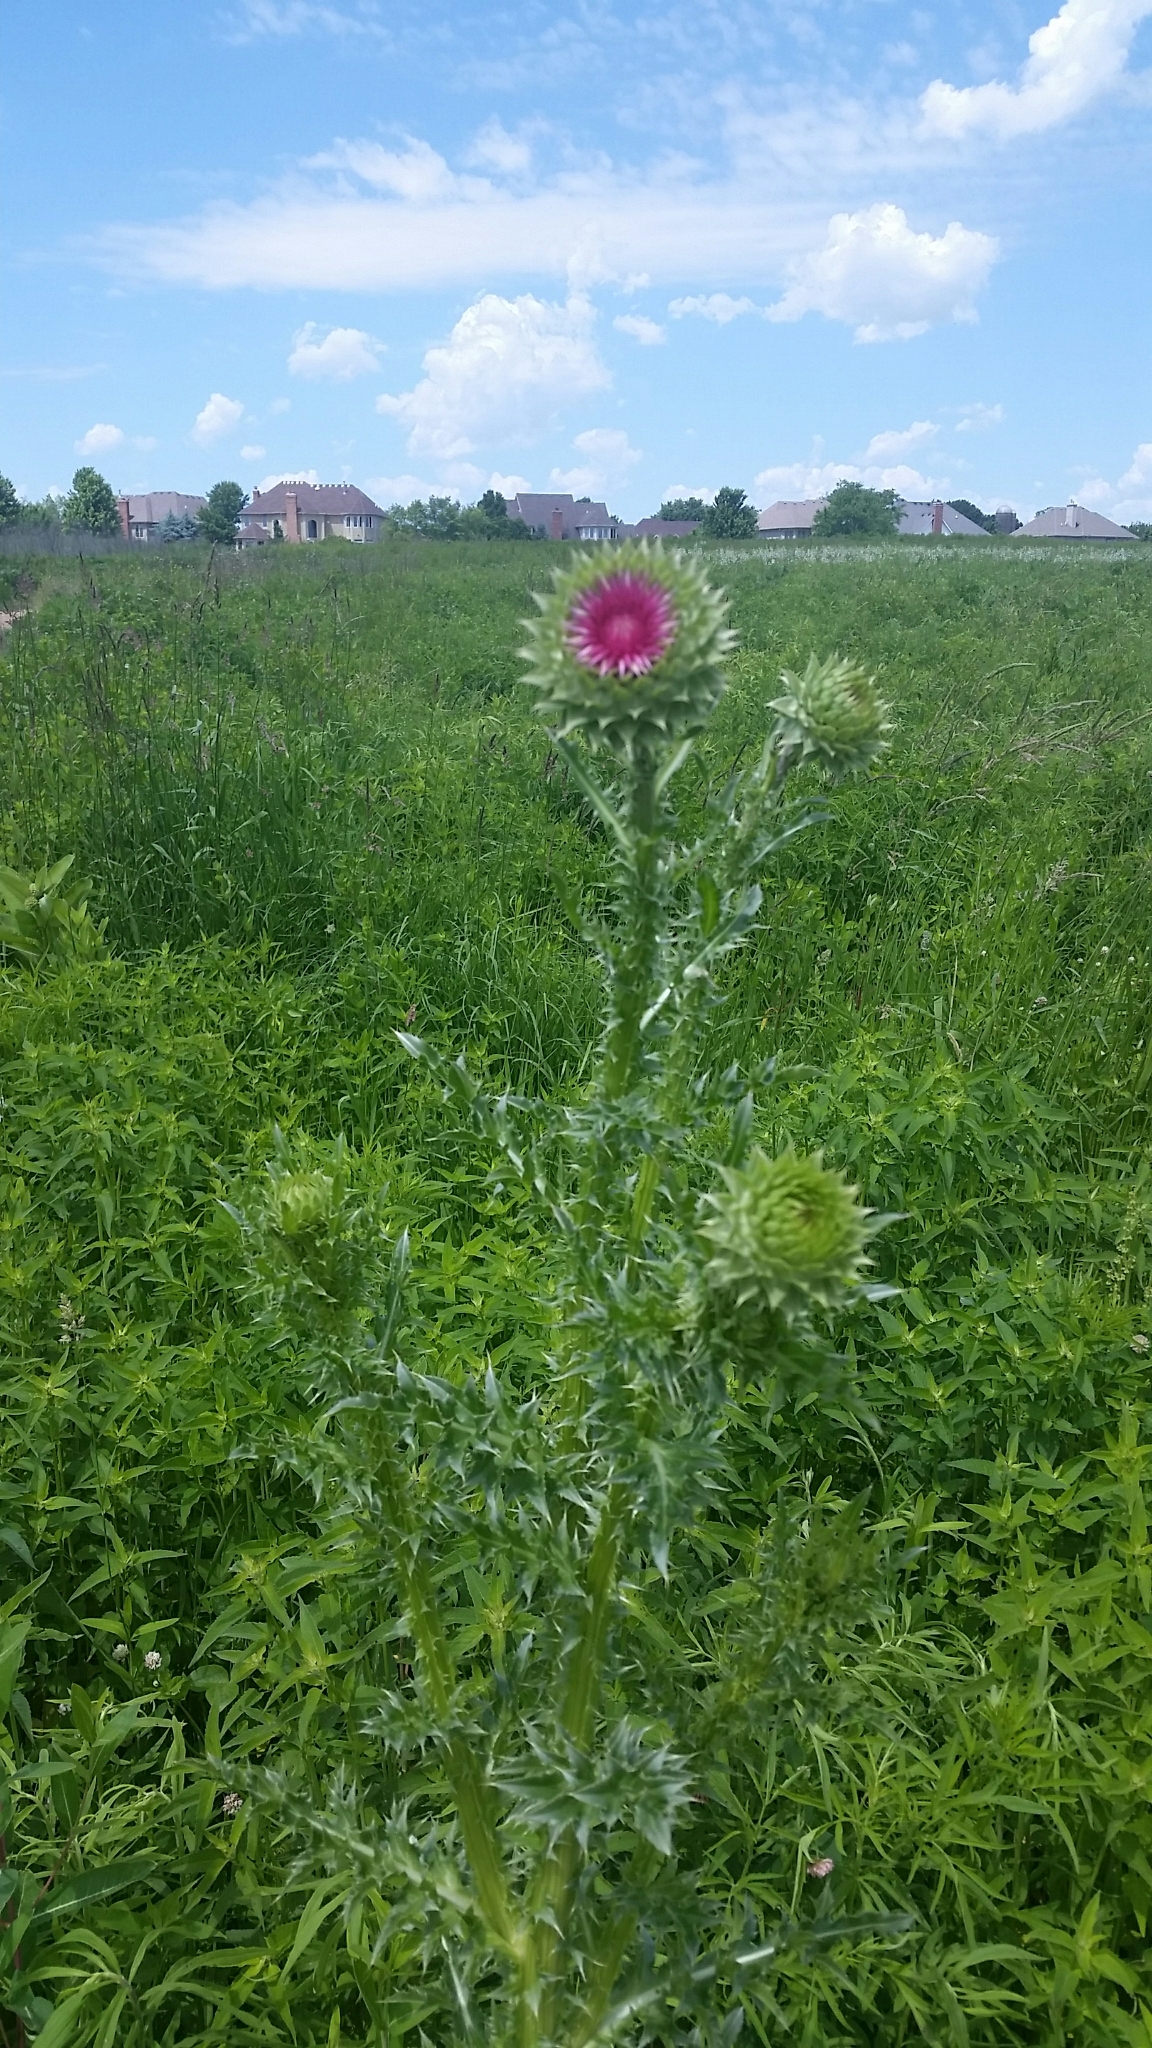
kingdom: Plantae
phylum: Tracheophyta
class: Magnoliopsida
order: Asterales
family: Asteraceae
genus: Carduus
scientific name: Carduus nutans
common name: Musk thistle
